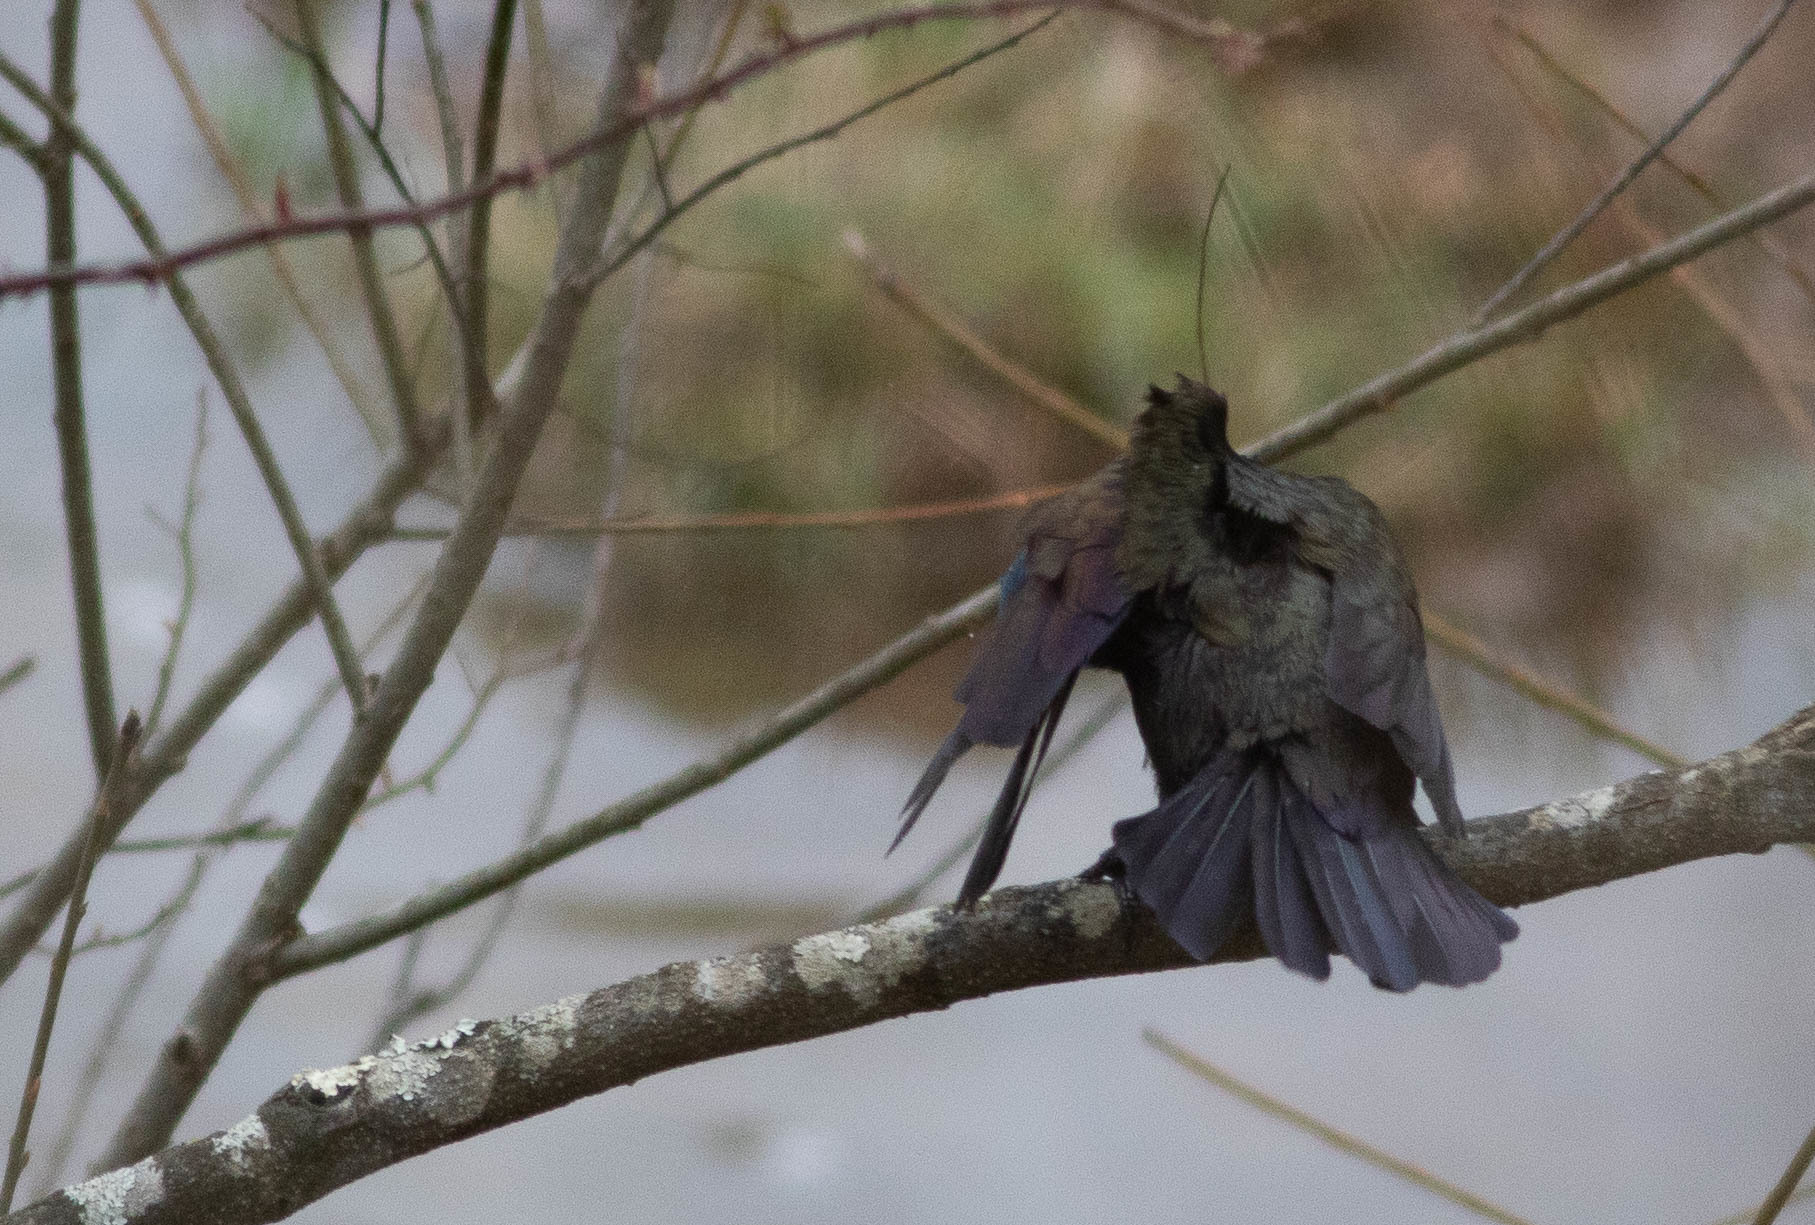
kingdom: Animalia
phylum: Chordata
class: Aves
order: Passeriformes
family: Icteridae
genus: Quiscalus
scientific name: Quiscalus quiscula
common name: Common grackle
